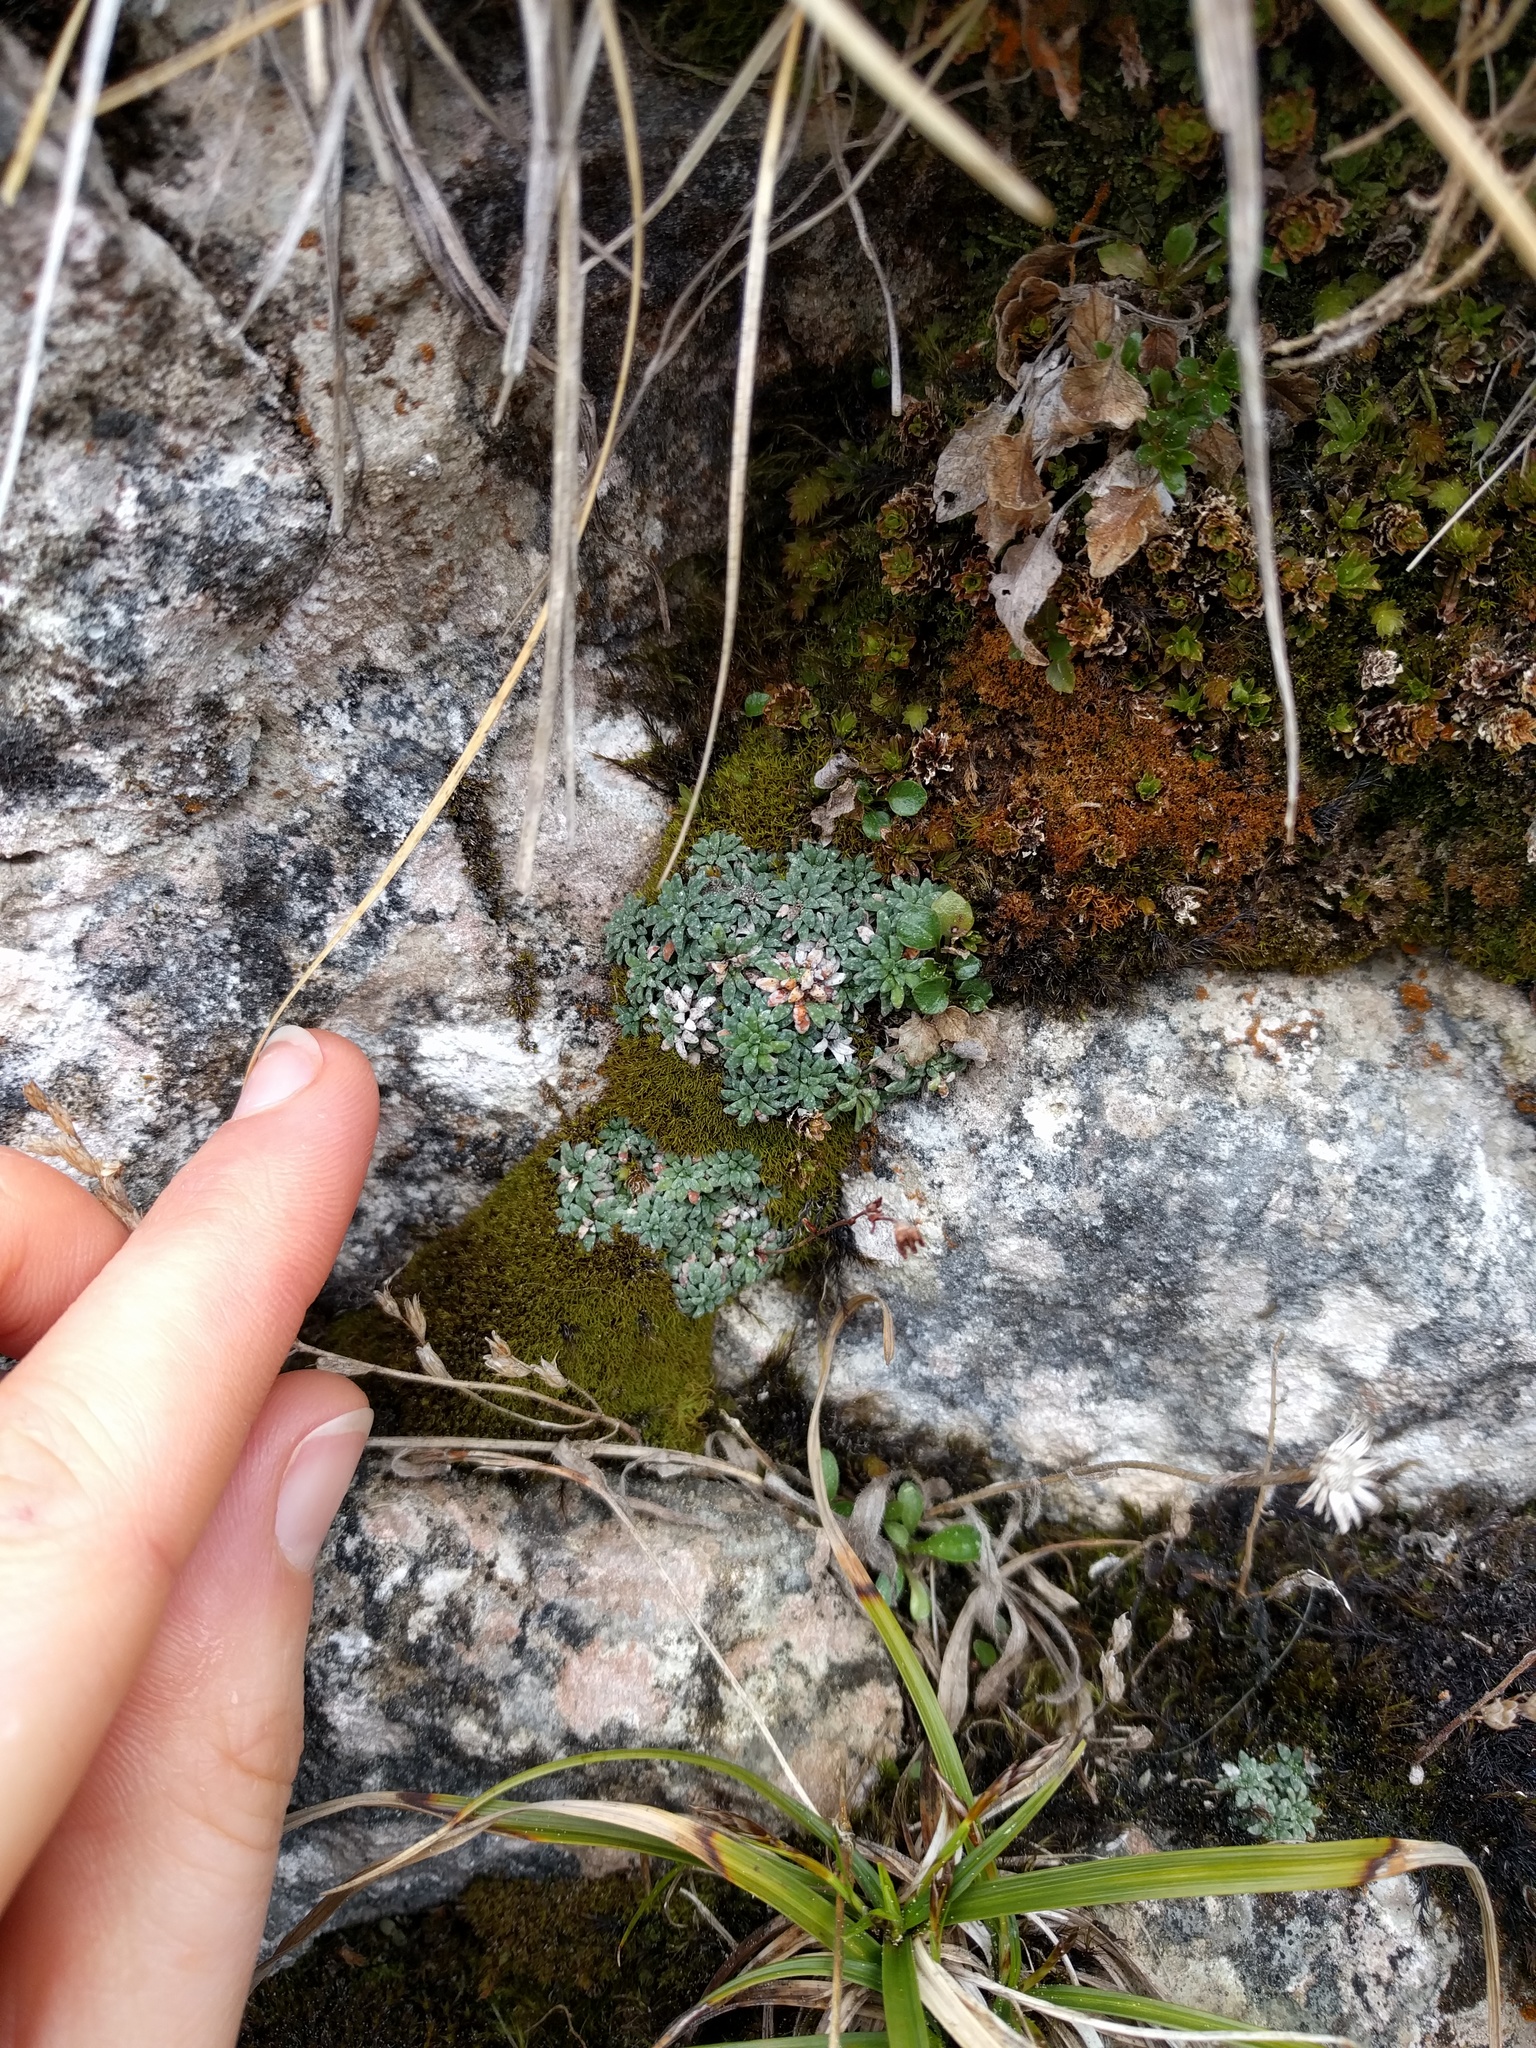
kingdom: Plantae
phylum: Tracheophyta
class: Magnoliopsida
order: Saxifragales
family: Saxifragaceae
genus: Saxifraga
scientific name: Saxifraga caesia
